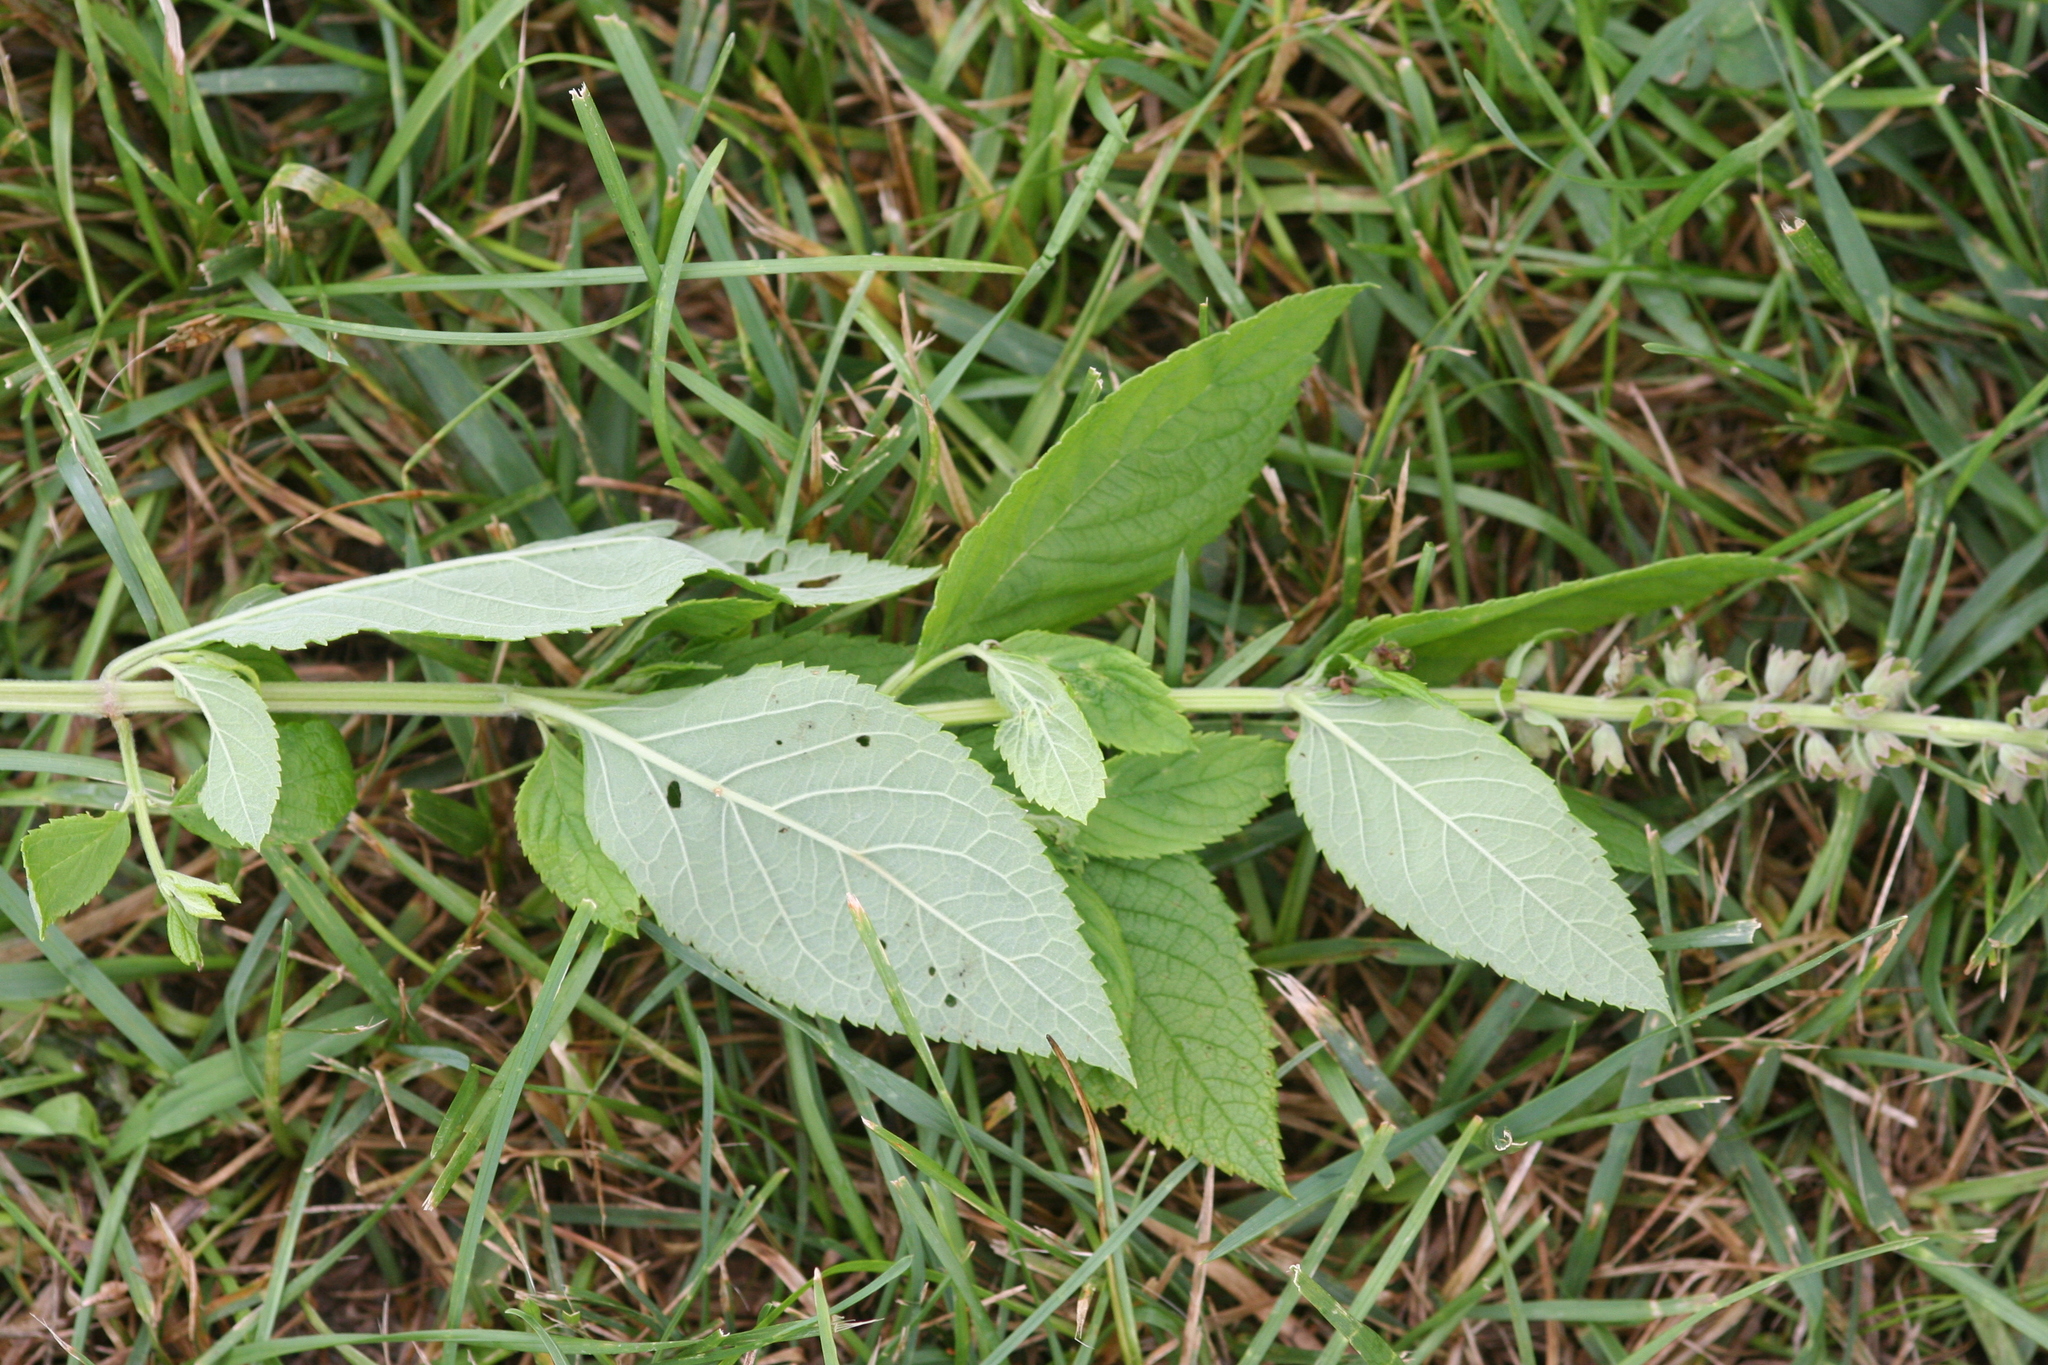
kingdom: Plantae
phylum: Tracheophyta
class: Magnoliopsida
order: Lamiales
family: Lamiaceae
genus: Teucrium
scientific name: Teucrium canadense
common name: American germander
